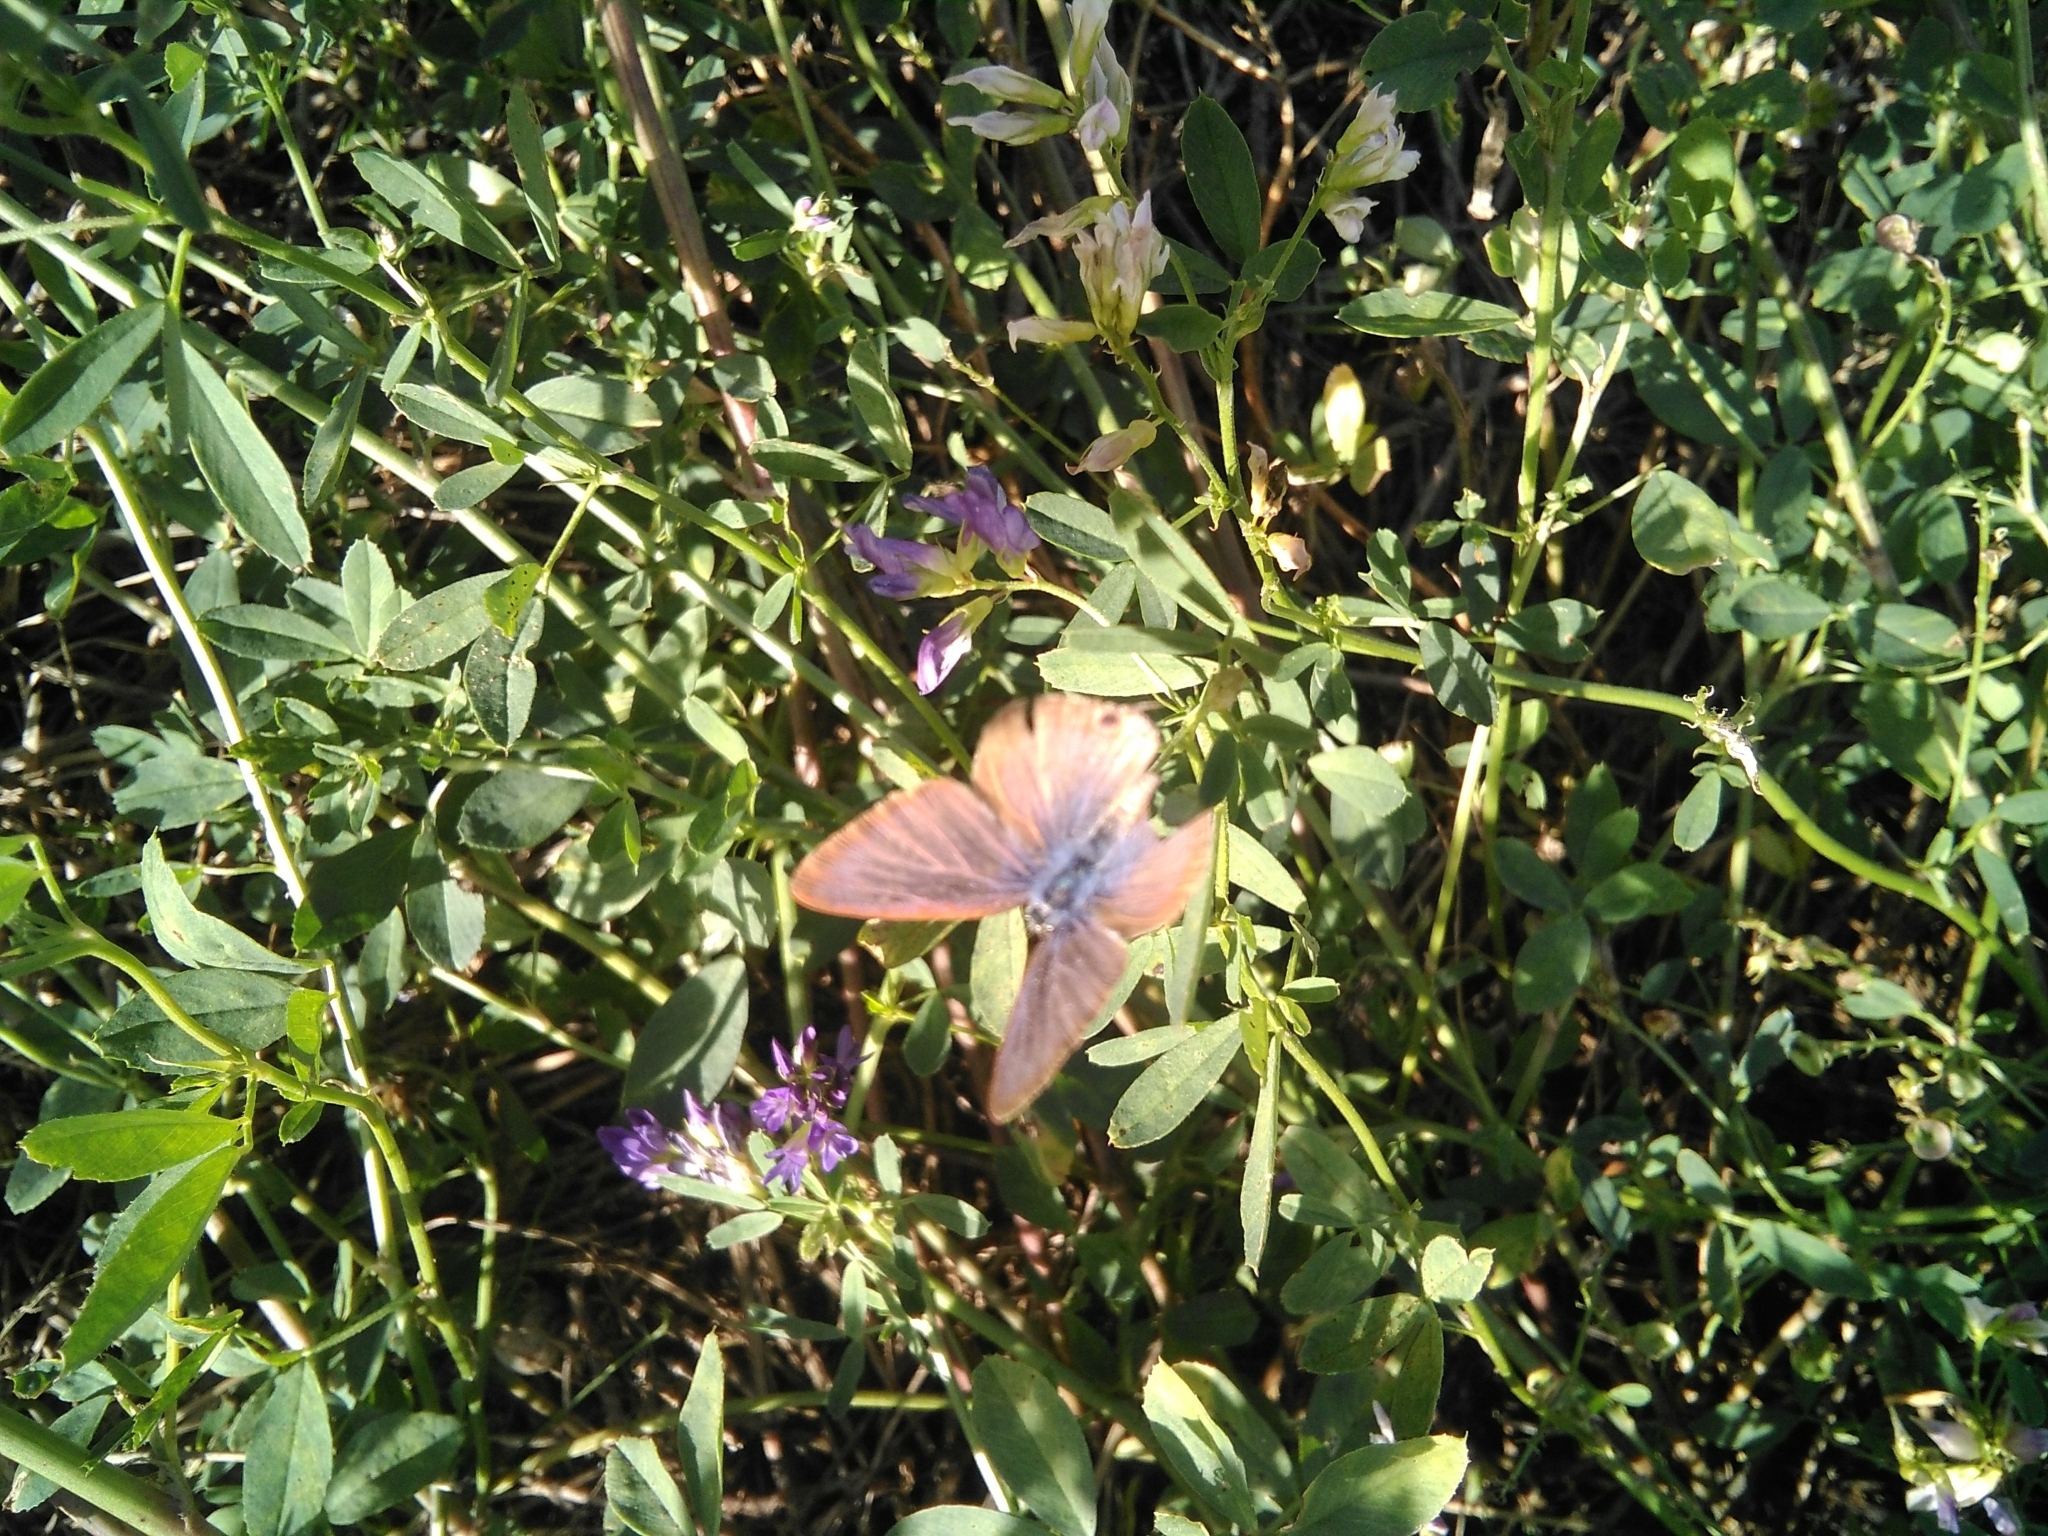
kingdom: Animalia
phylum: Arthropoda
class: Insecta
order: Lepidoptera
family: Lycaenidae
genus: Lampides
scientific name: Lampides boeticus
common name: Long-tailed blue
